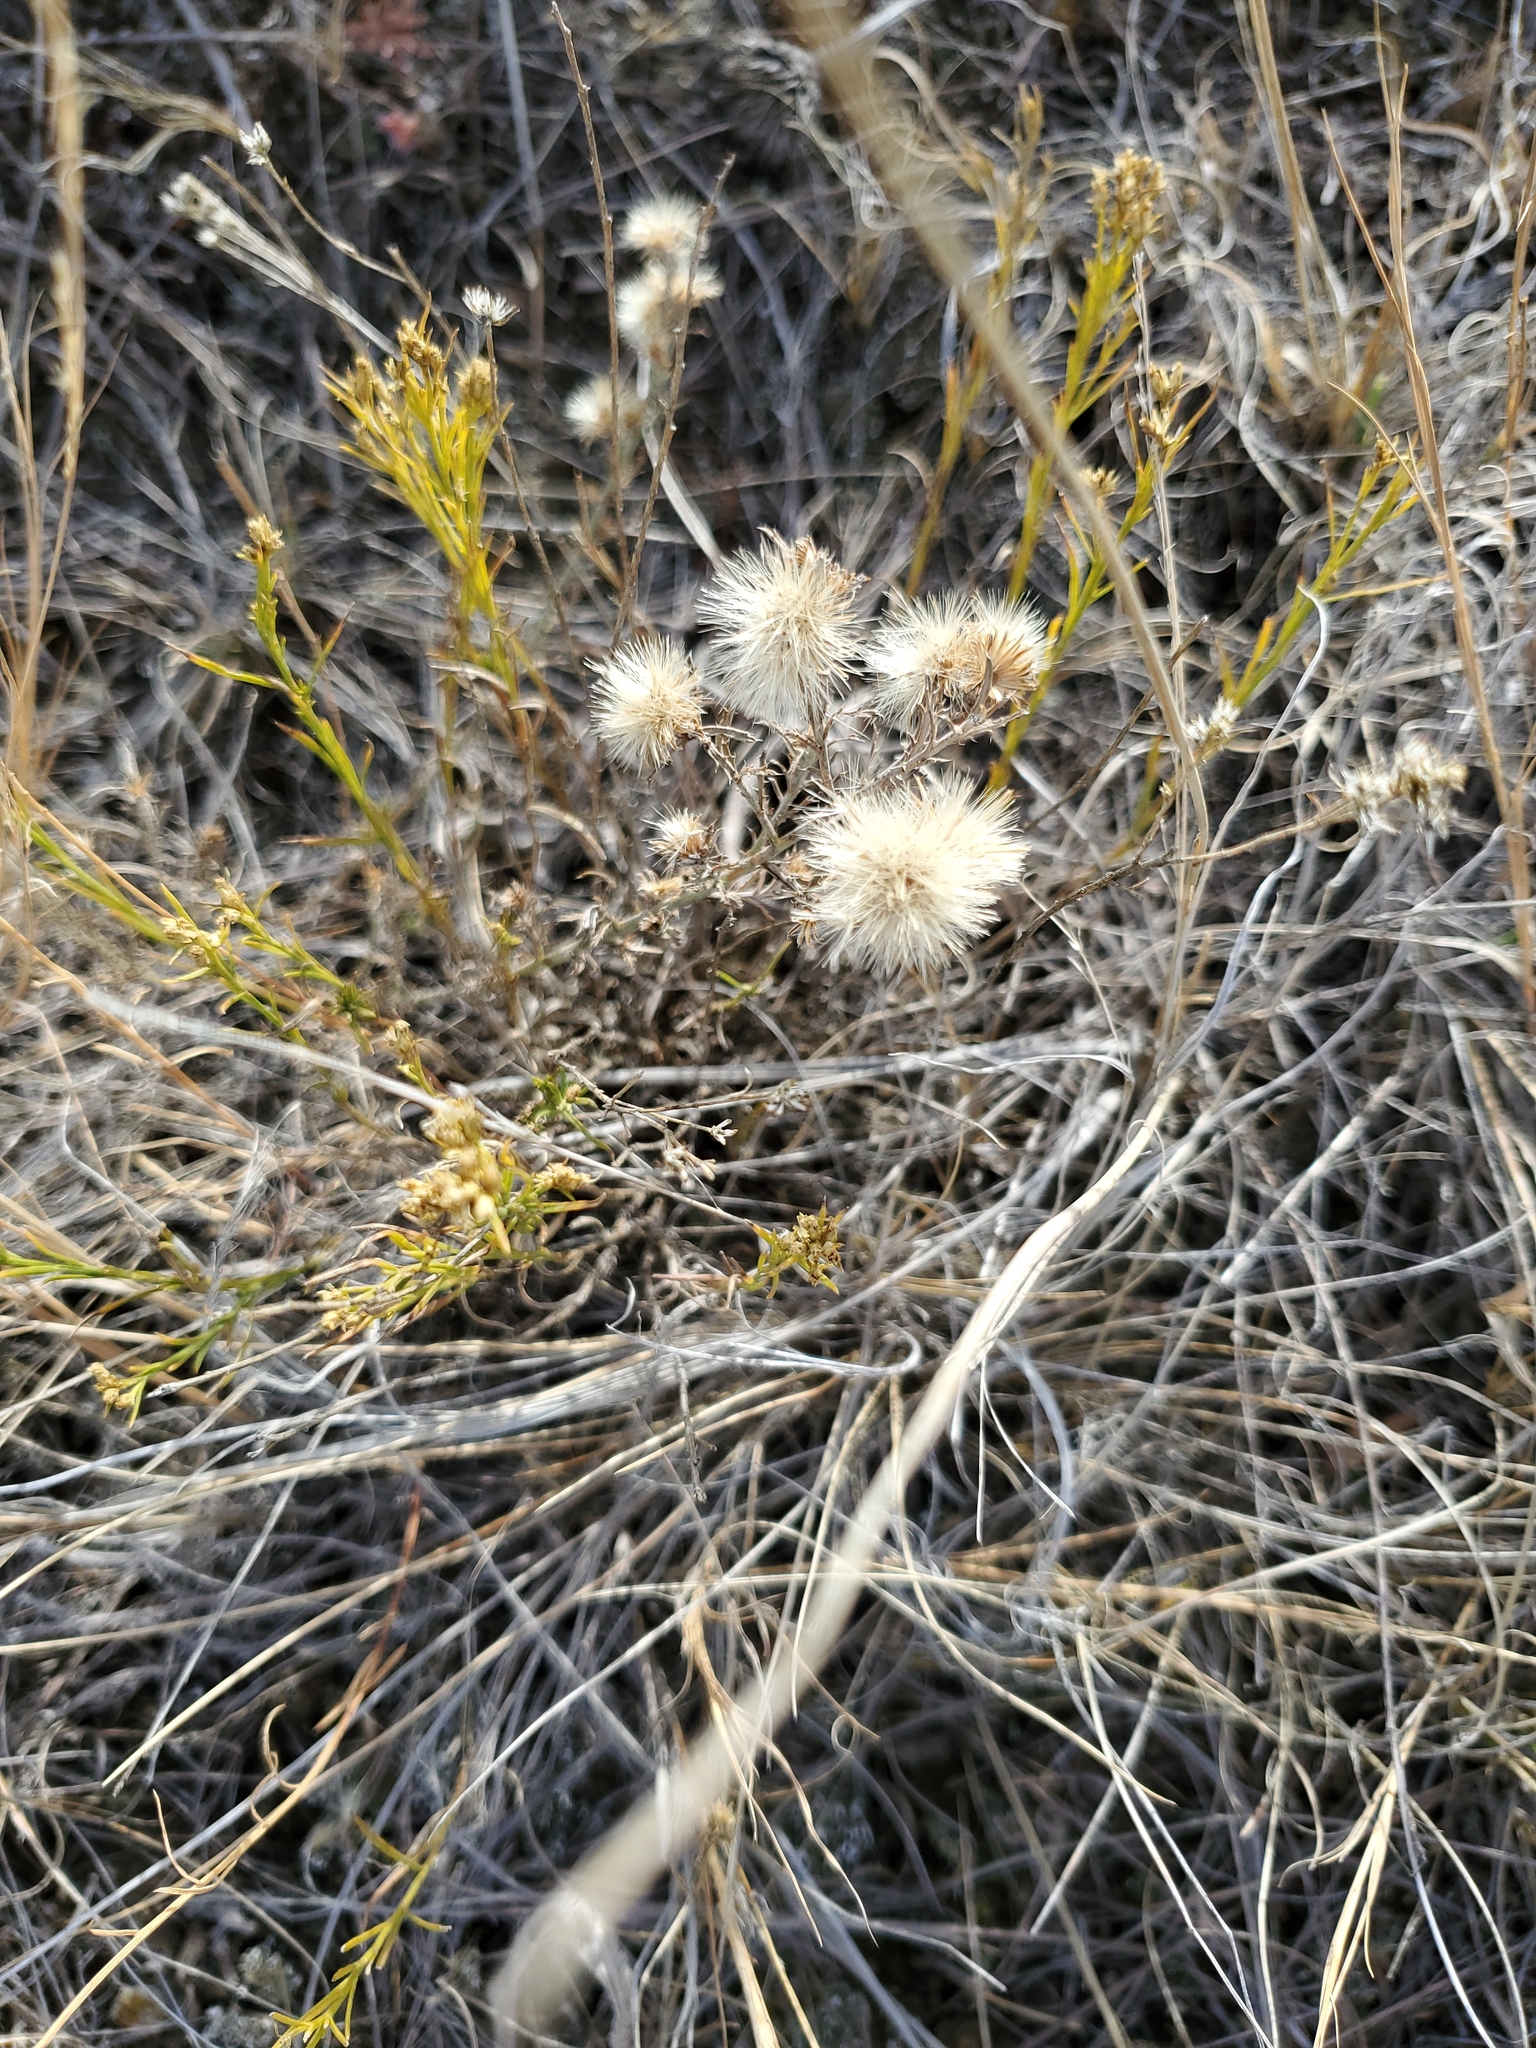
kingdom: Plantae
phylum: Tracheophyta
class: Magnoliopsida
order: Asterales
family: Asteraceae
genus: Xanthisma
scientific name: Xanthisma spinulosum
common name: Spiny goldenweed
